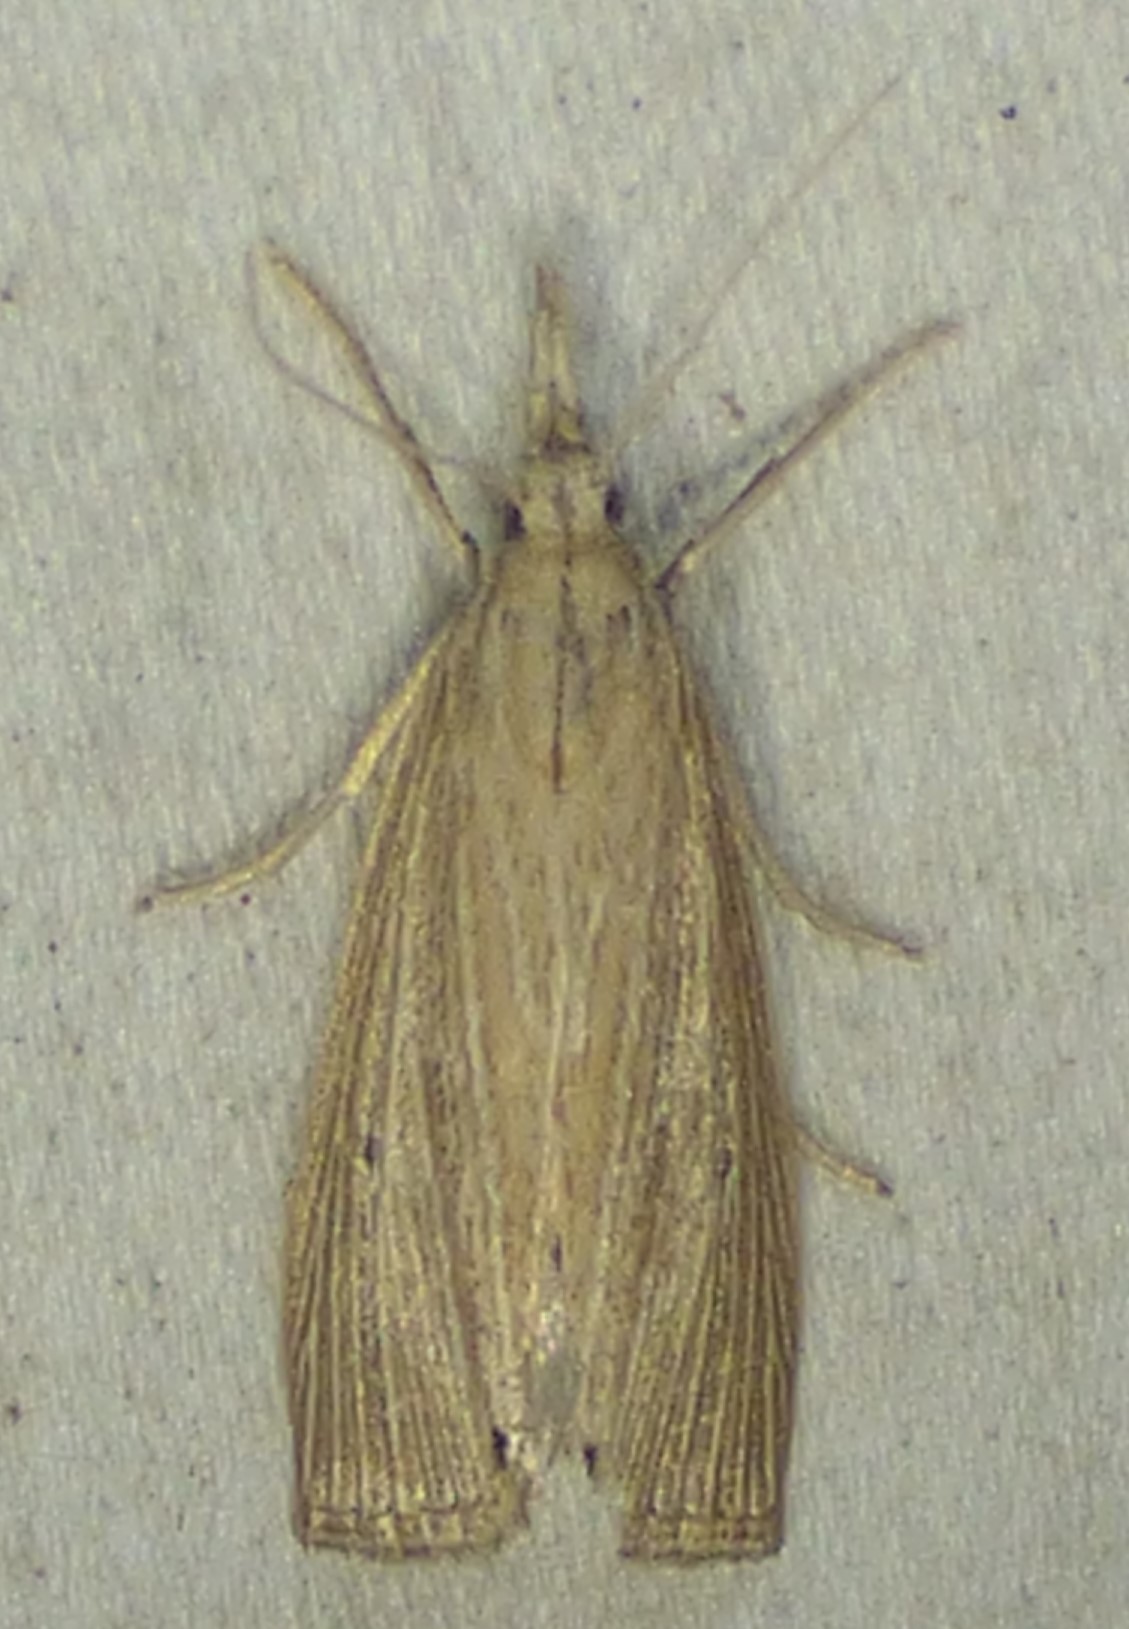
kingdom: Animalia
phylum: Arthropoda
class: Insecta
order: Lepidoptera
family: Crambidae
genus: Eoreuma
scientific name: Eoreuma densellus
